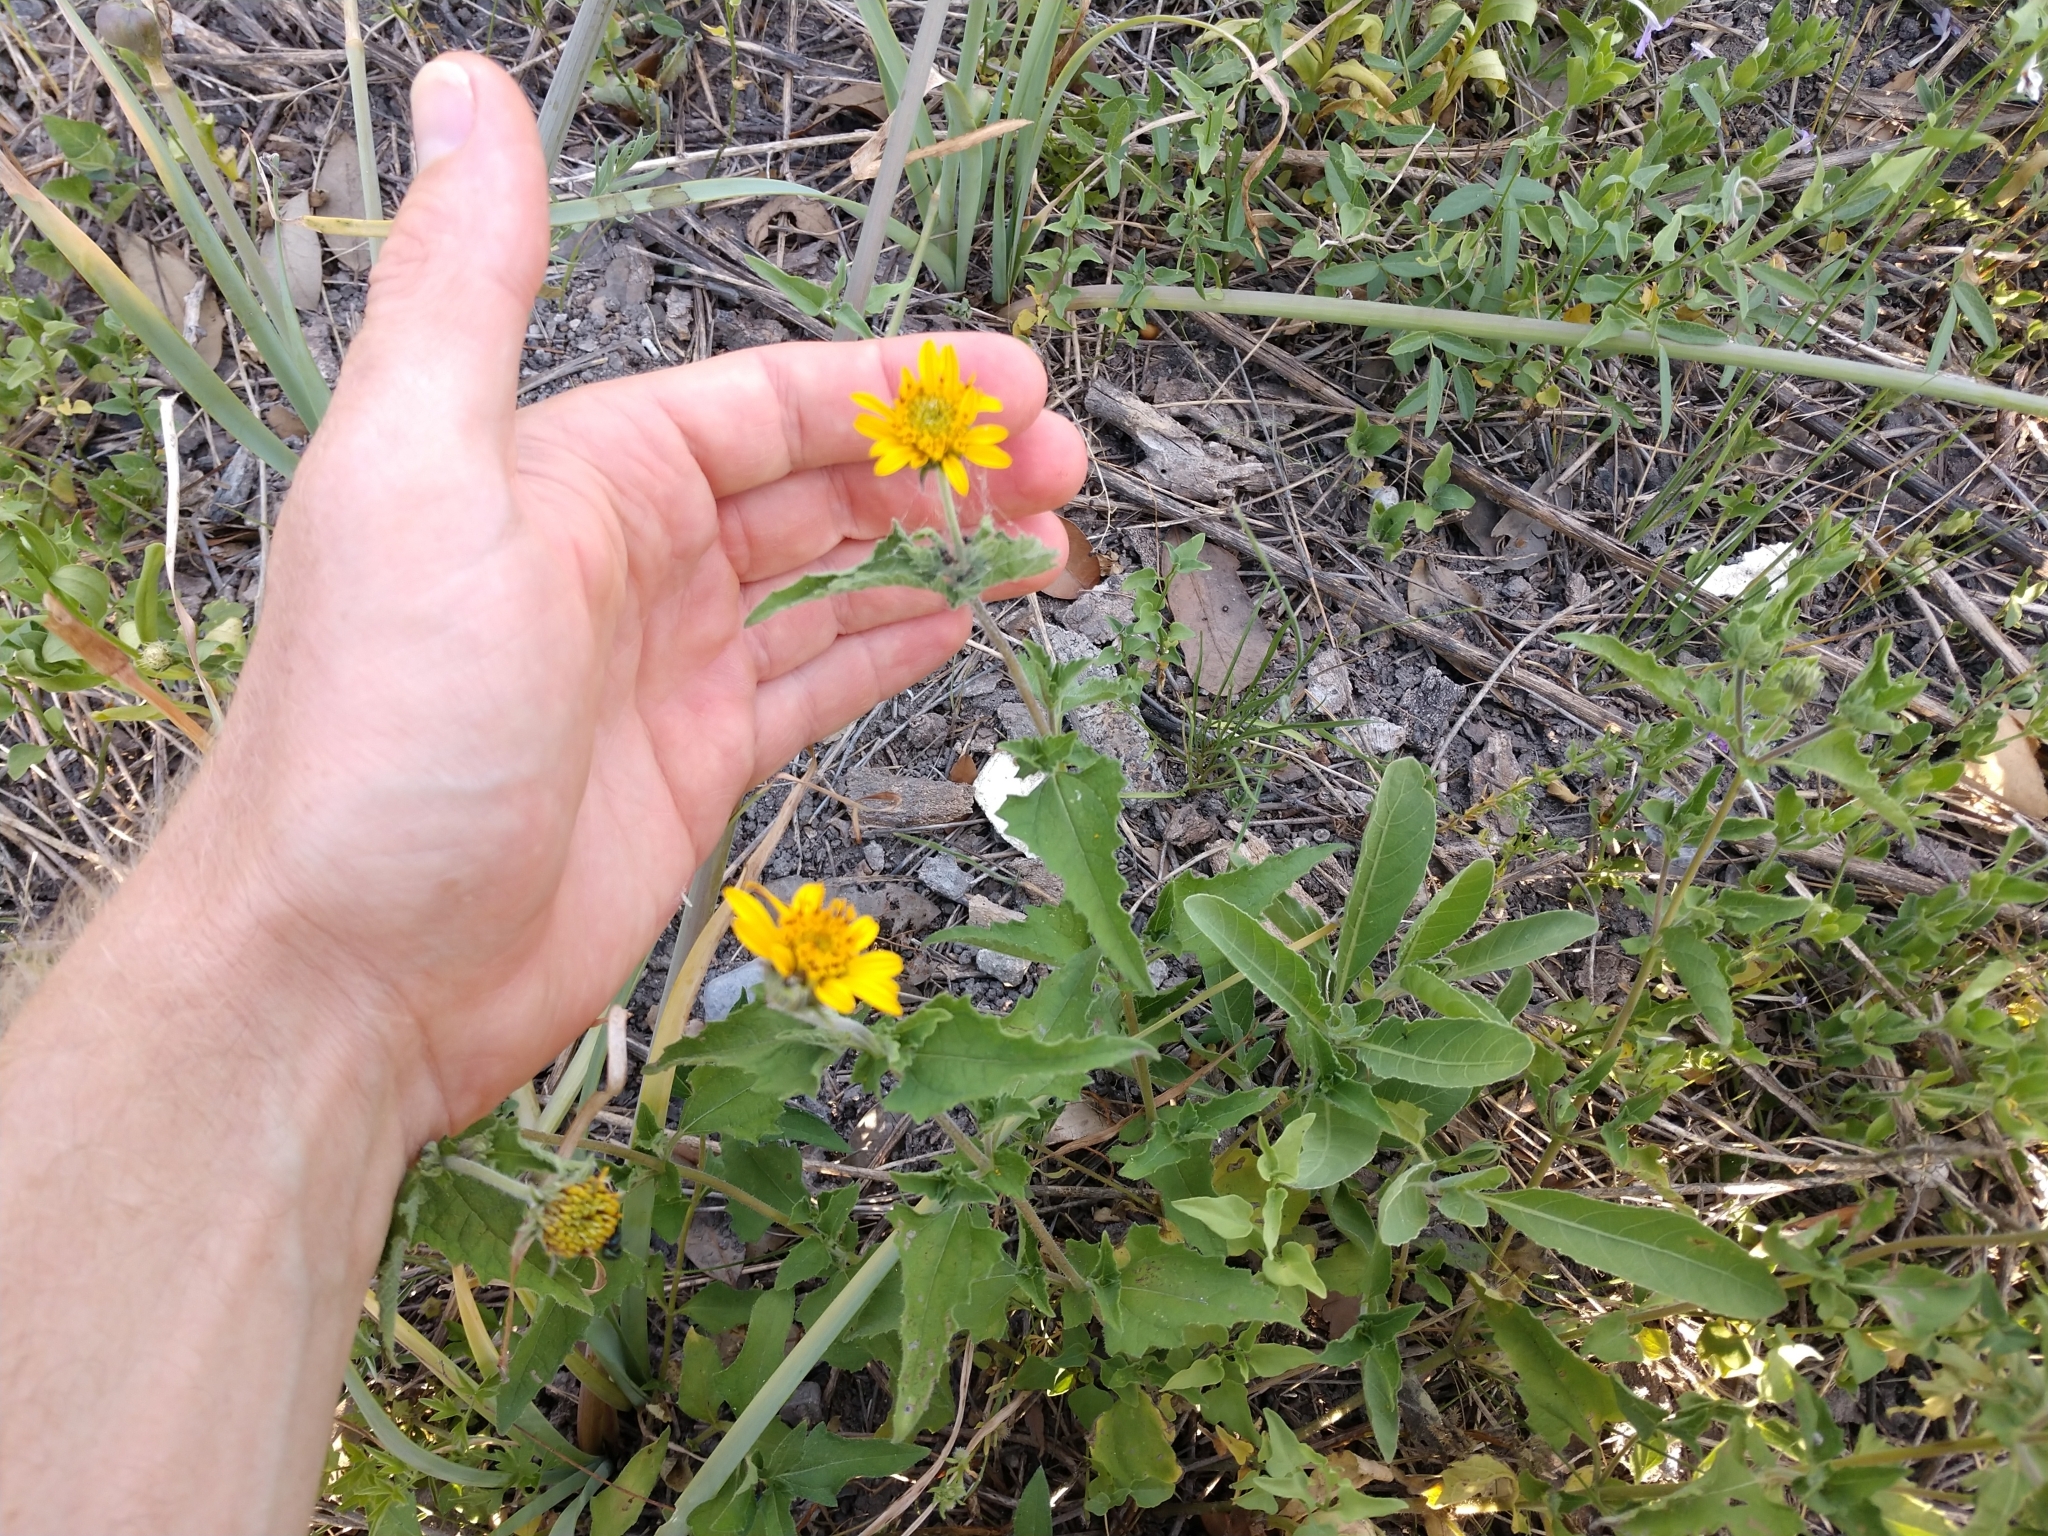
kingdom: Plantae
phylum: Tracheophyta
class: Magnoliopsida
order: Asterales
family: Asteraceae
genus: Simsia
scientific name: Simsia calva
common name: Awnless bush-sunflower
